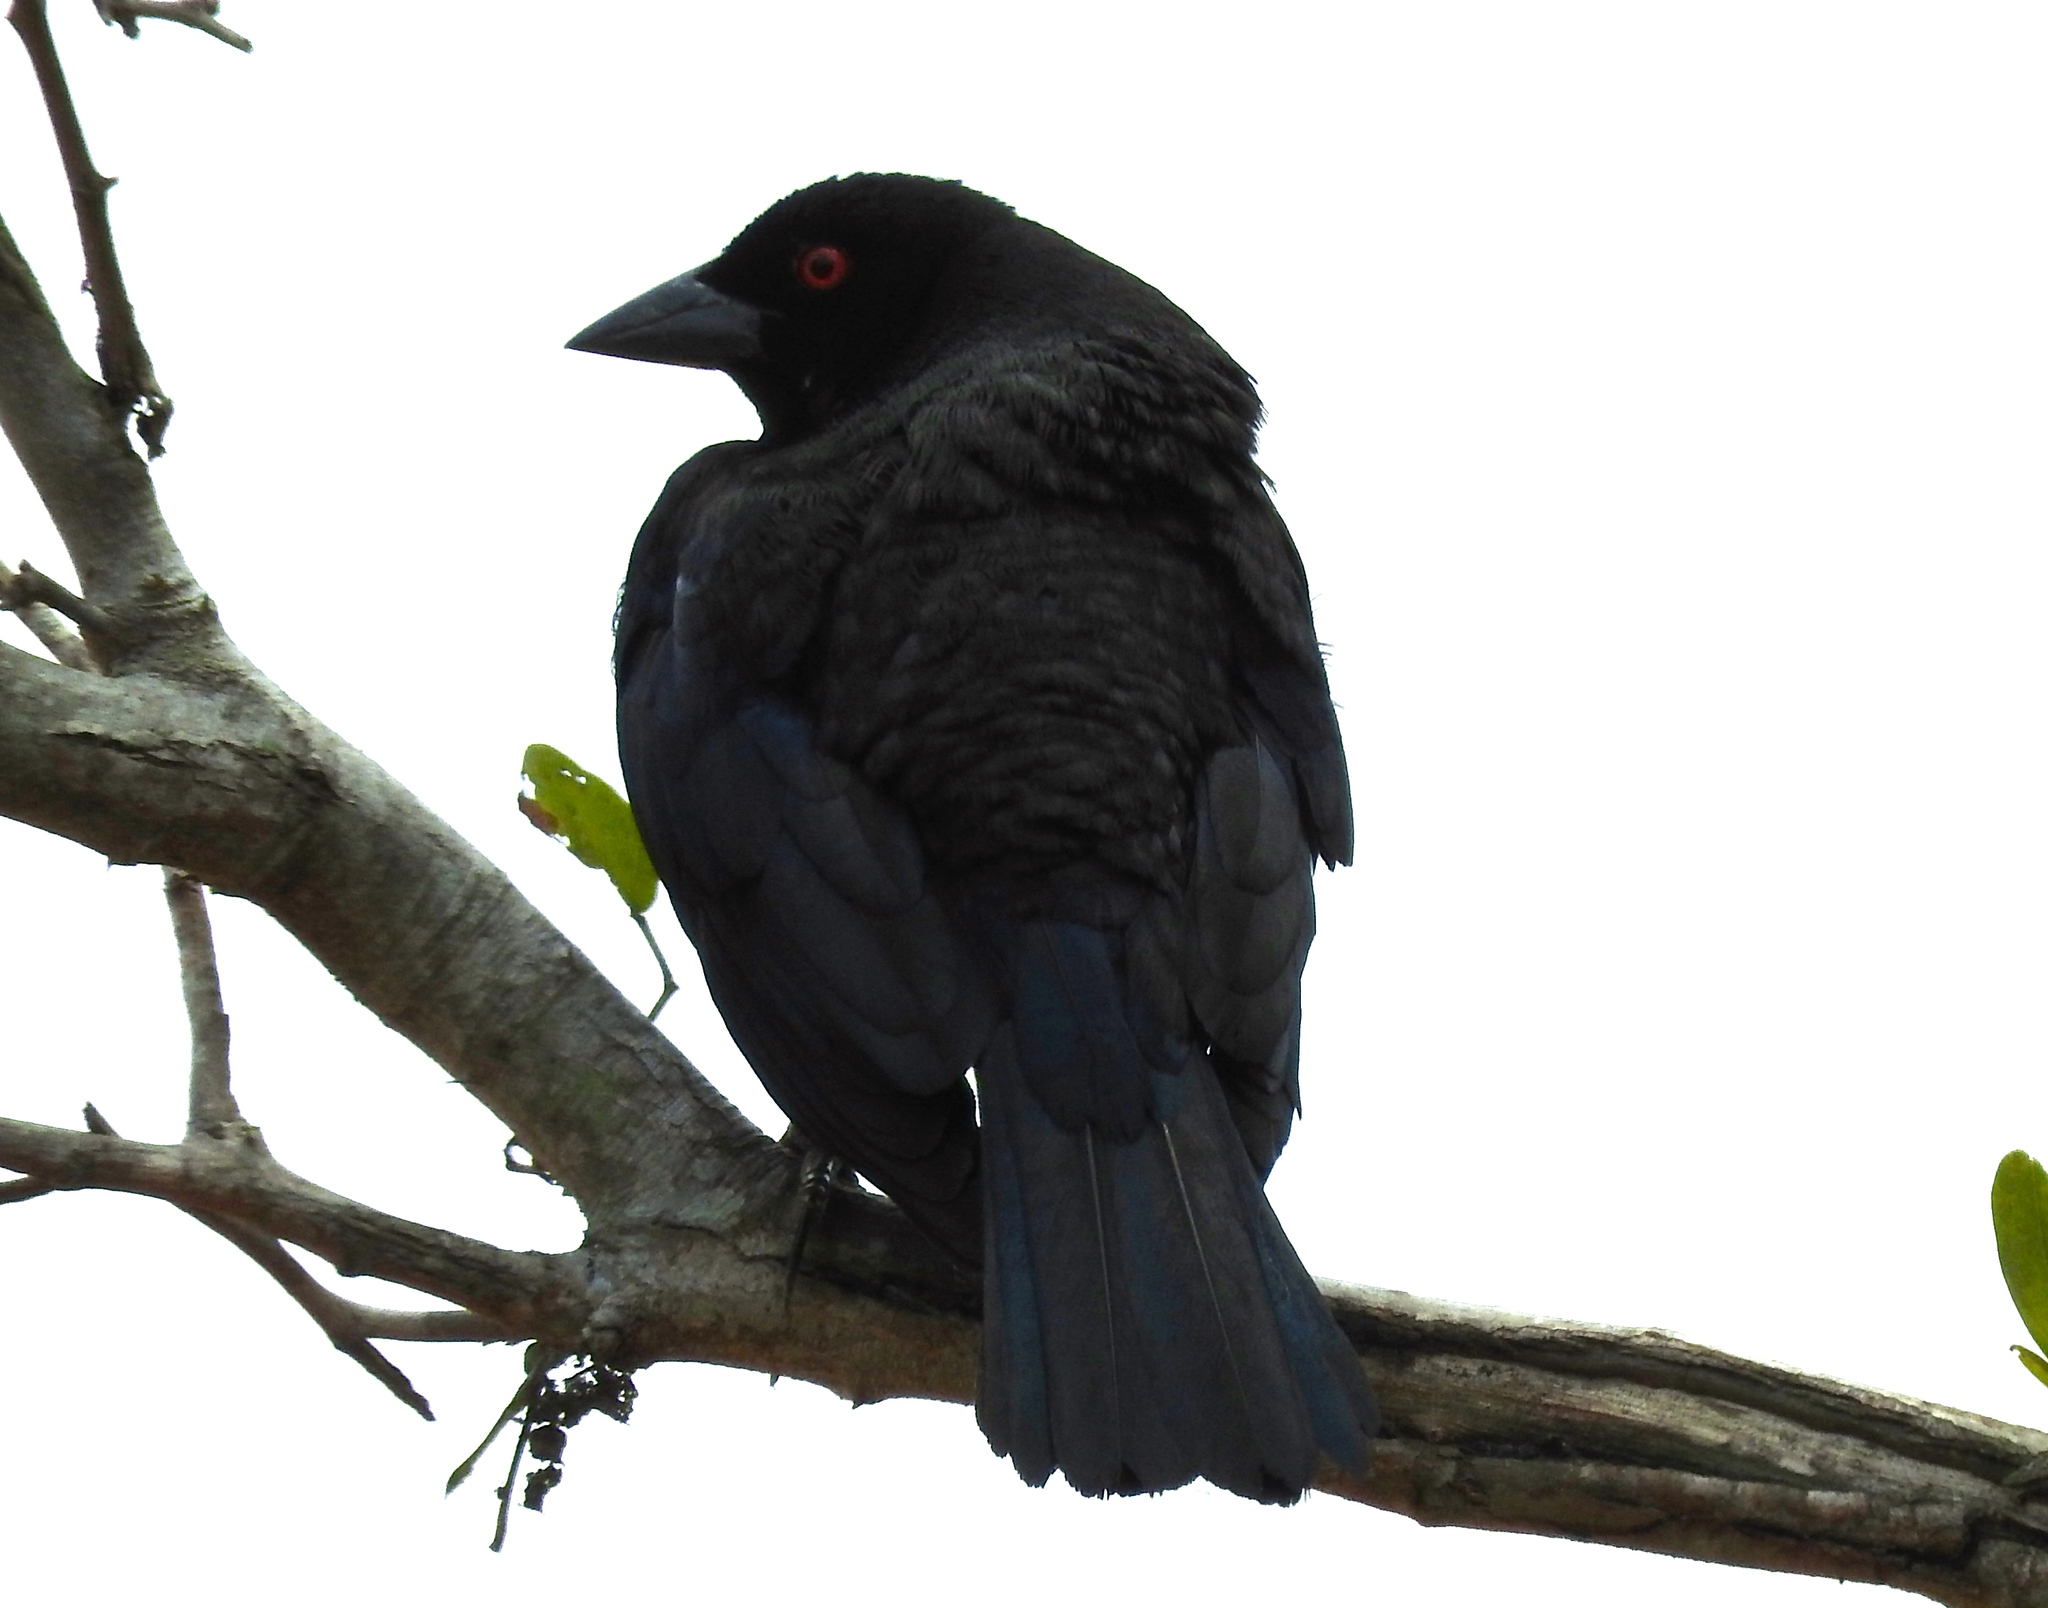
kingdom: Animalia
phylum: Chordata
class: Aves
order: Passeriformes
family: Icteridae
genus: Molothrus
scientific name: Molothrus aeneus
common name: Bronzed cowbird
